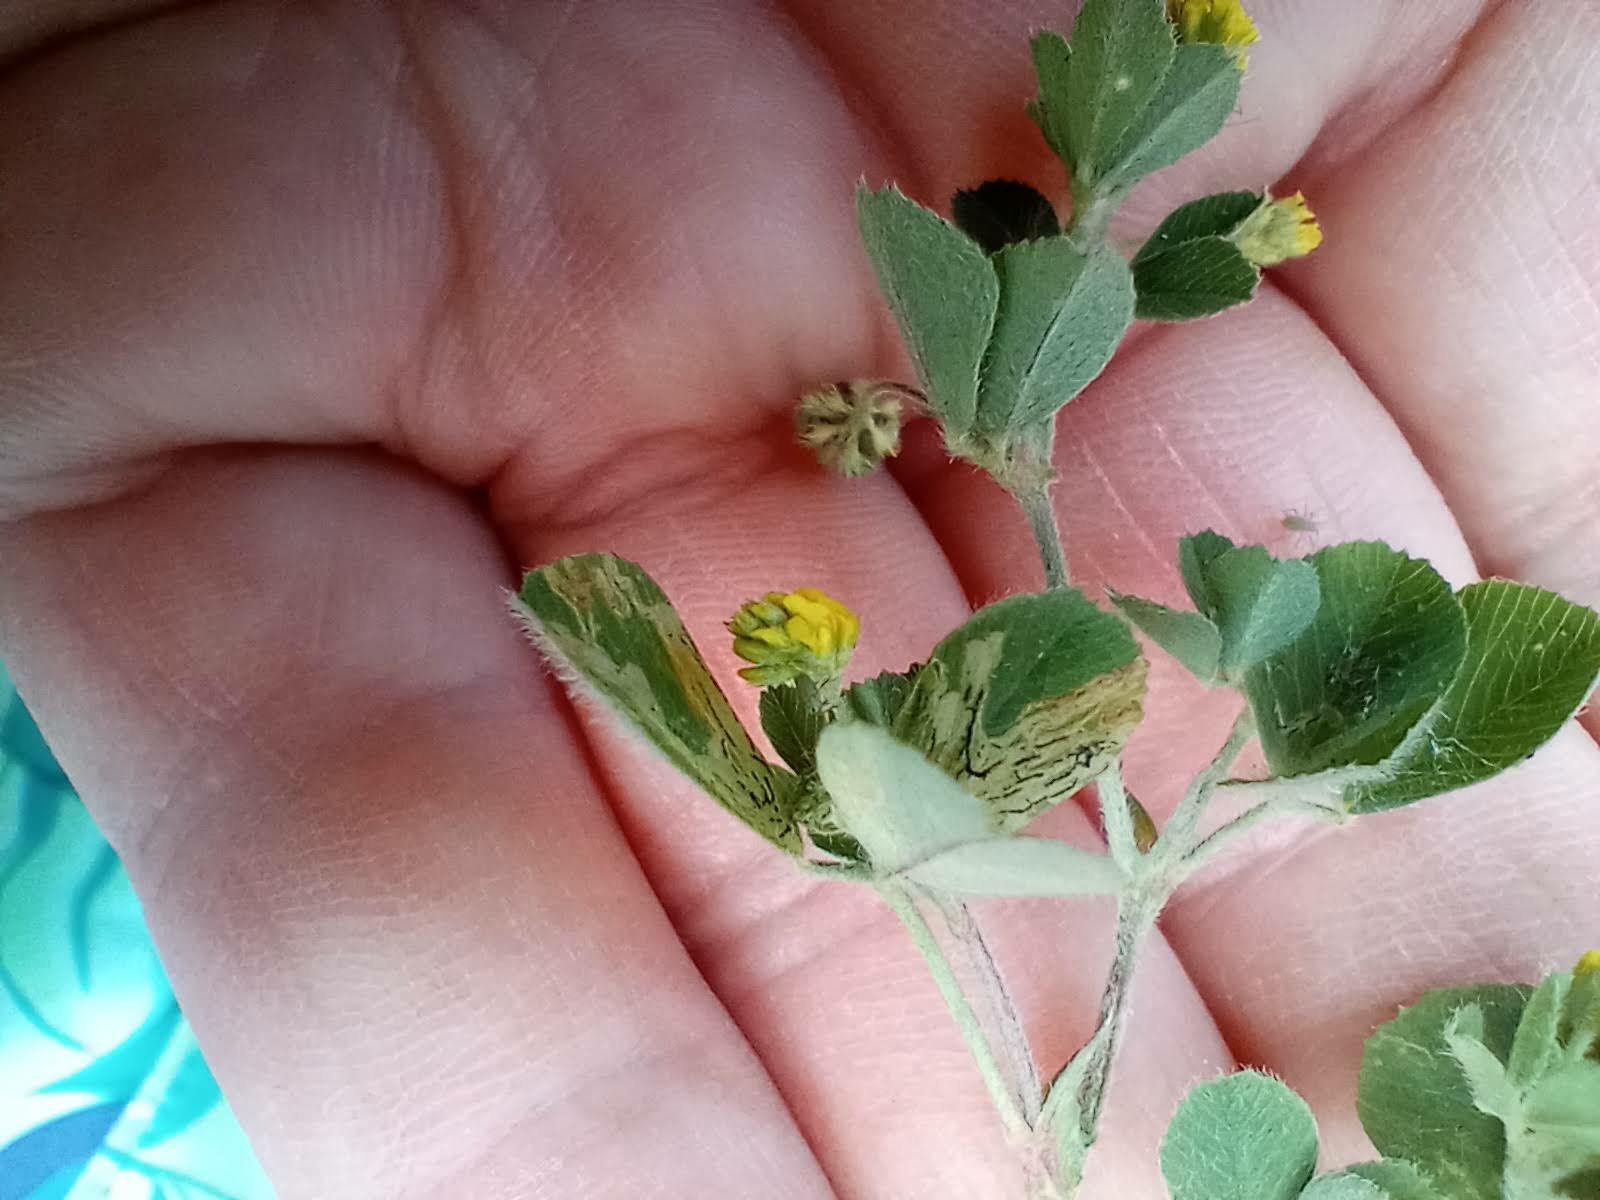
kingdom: Plantae
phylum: Tracheophyta
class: Magnoliopsida
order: Fabales
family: Fabaceae
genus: Medicago
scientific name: Medicago lupulina
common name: Black medick
